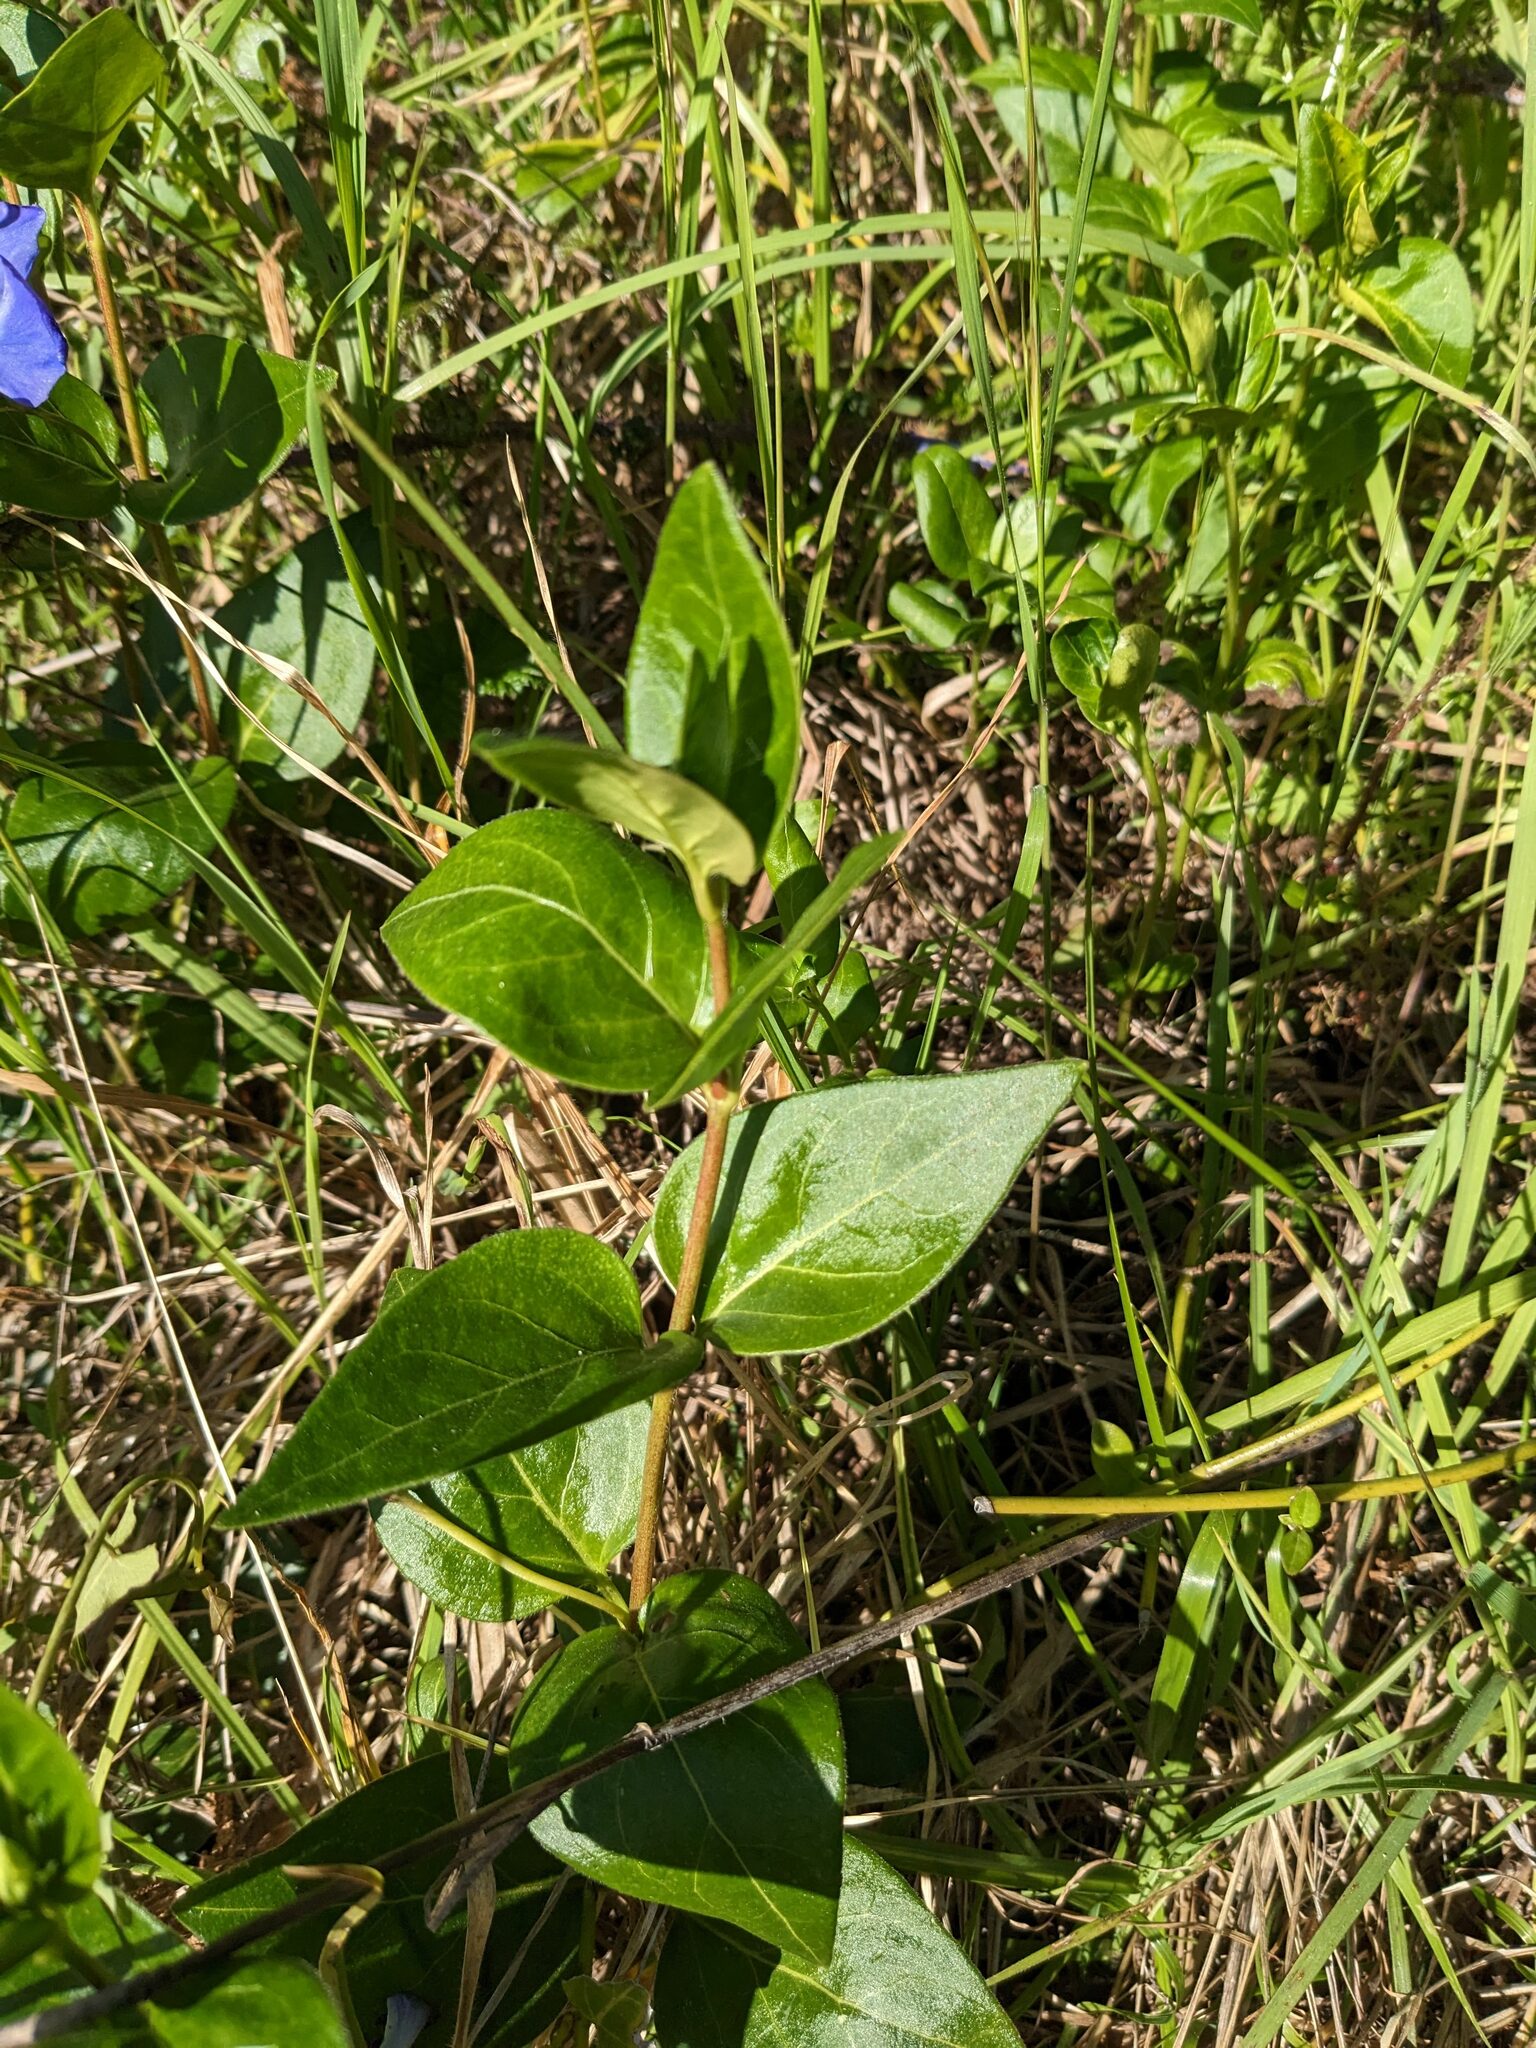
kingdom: Plantae
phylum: Tracheophyta
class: Magnoliopsida
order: Gentianales
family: Apocynaceae
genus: Vinca
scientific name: Vinca major
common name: Greater periwinkle
